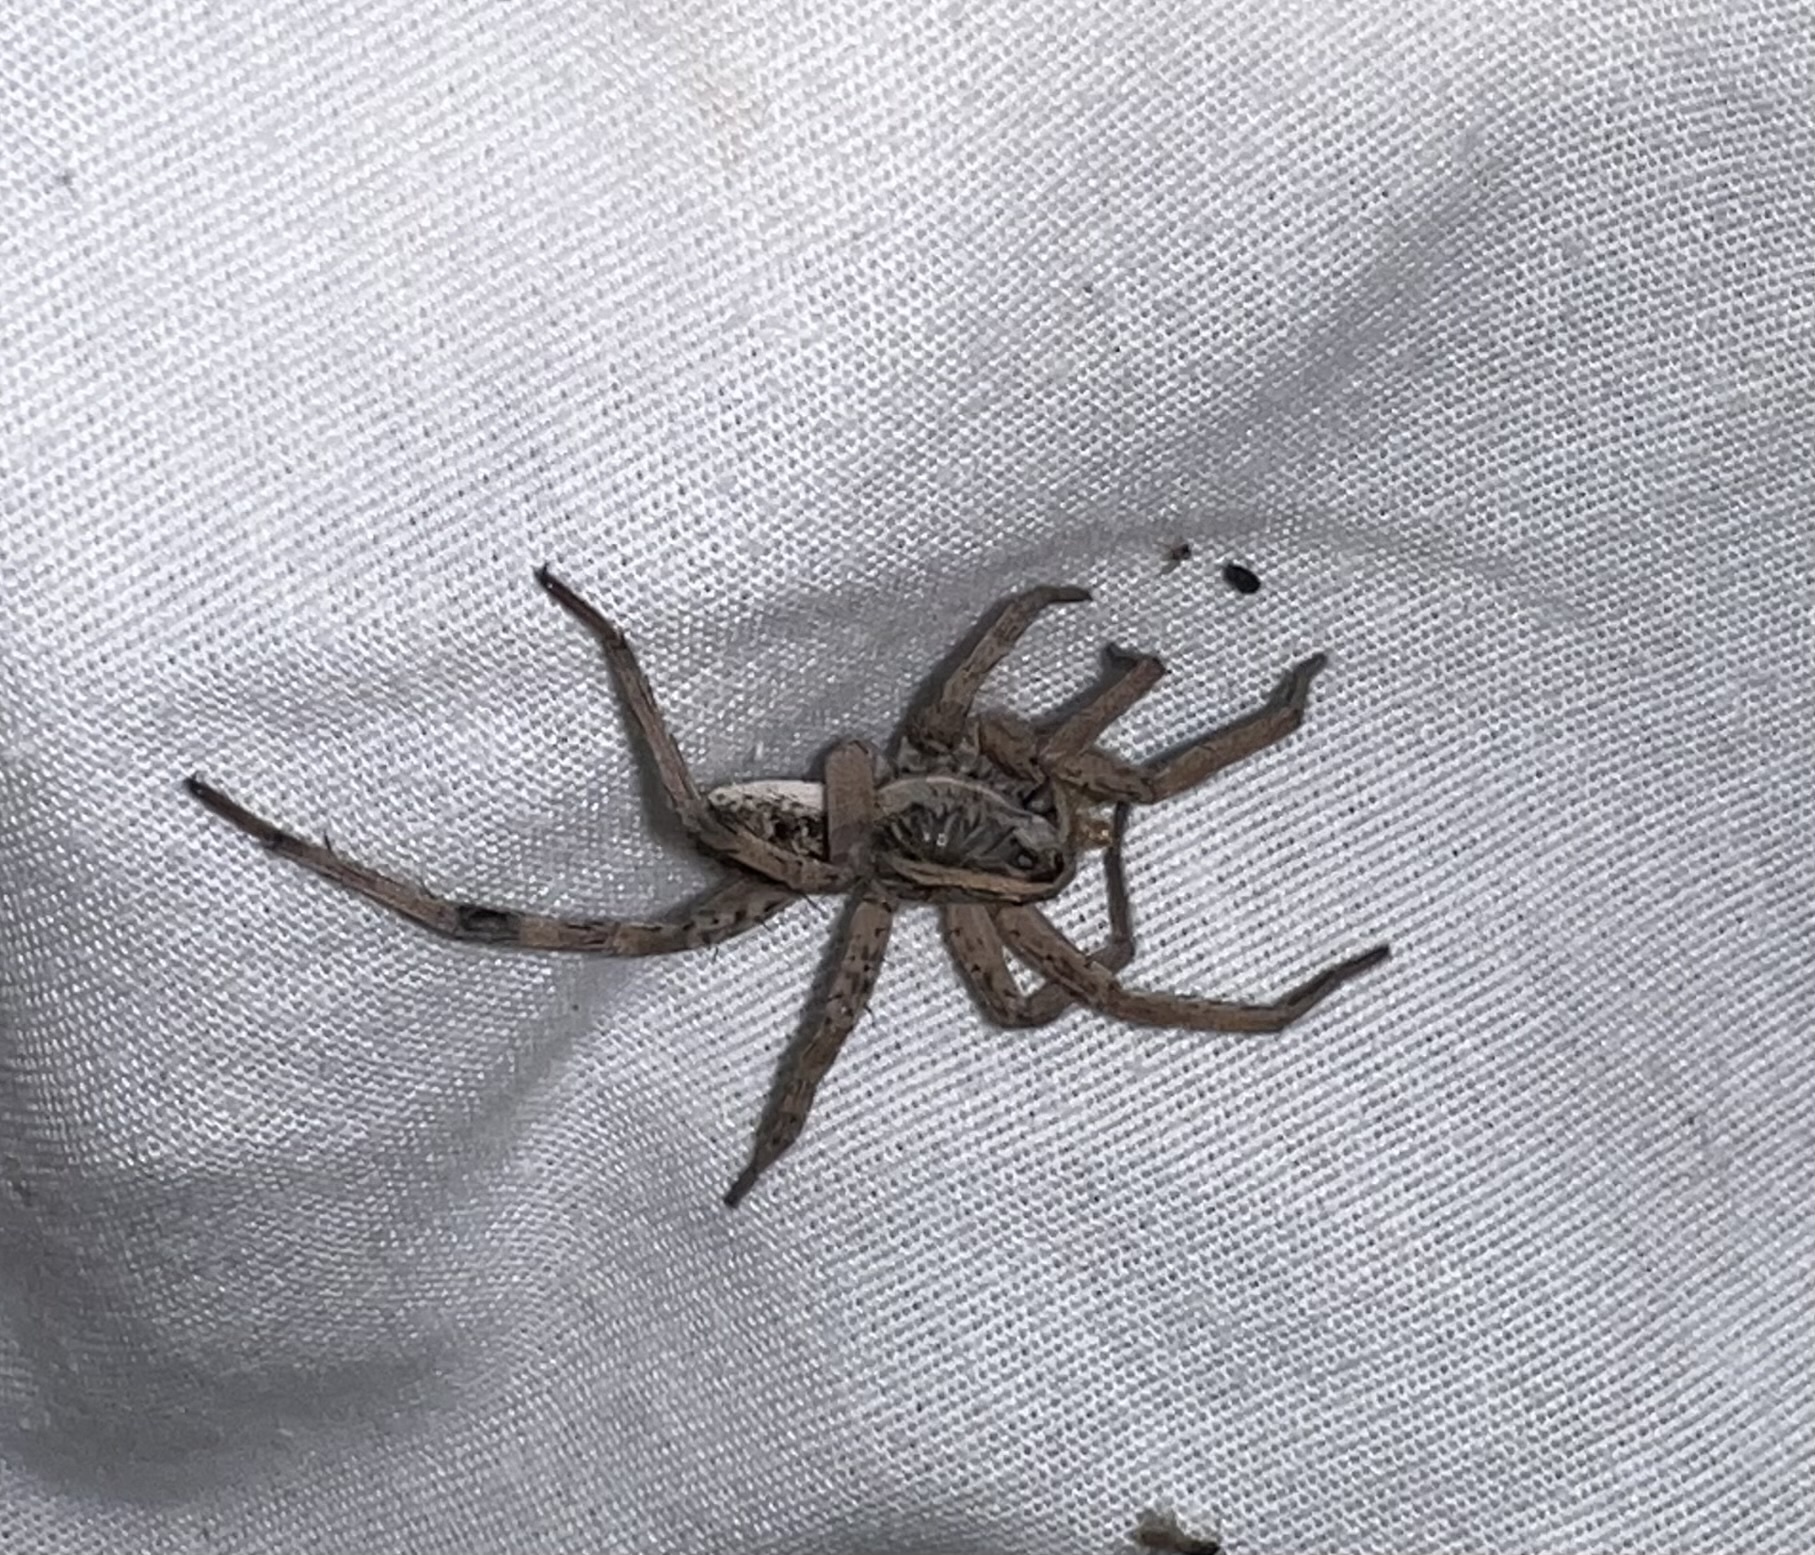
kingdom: Animalia
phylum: Arthropoda
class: Arachnida
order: Araneae
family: Lycosidae
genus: Hogna
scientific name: Hogna antelucana
